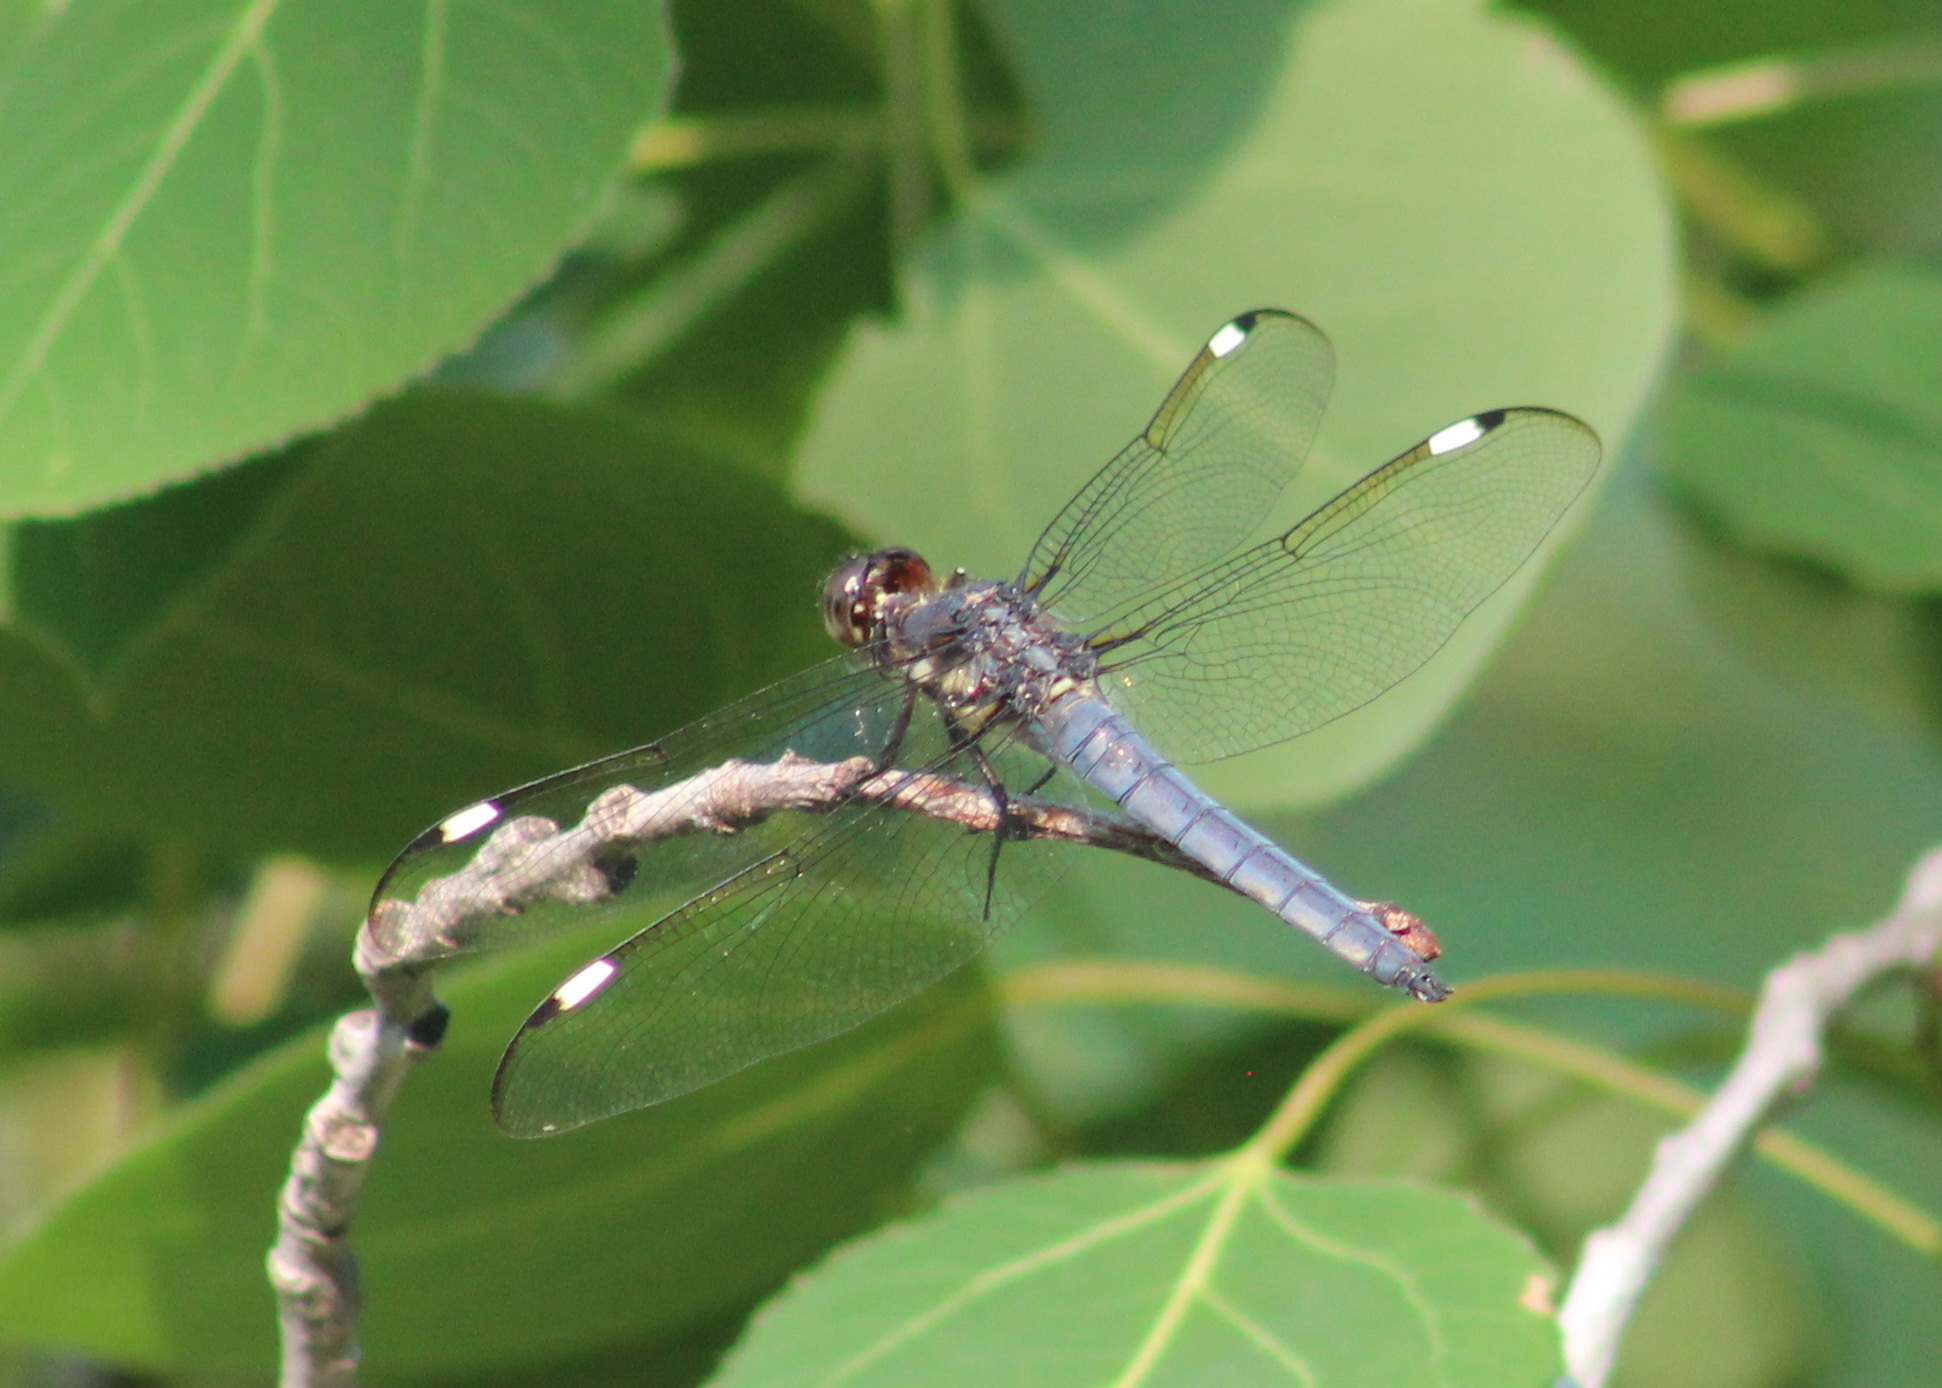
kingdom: Animalia
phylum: Arthropoda
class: Insecta
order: Odonata
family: Libellulidae
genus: Libellula
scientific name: Libellula cyanea
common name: Spangled skimmer
